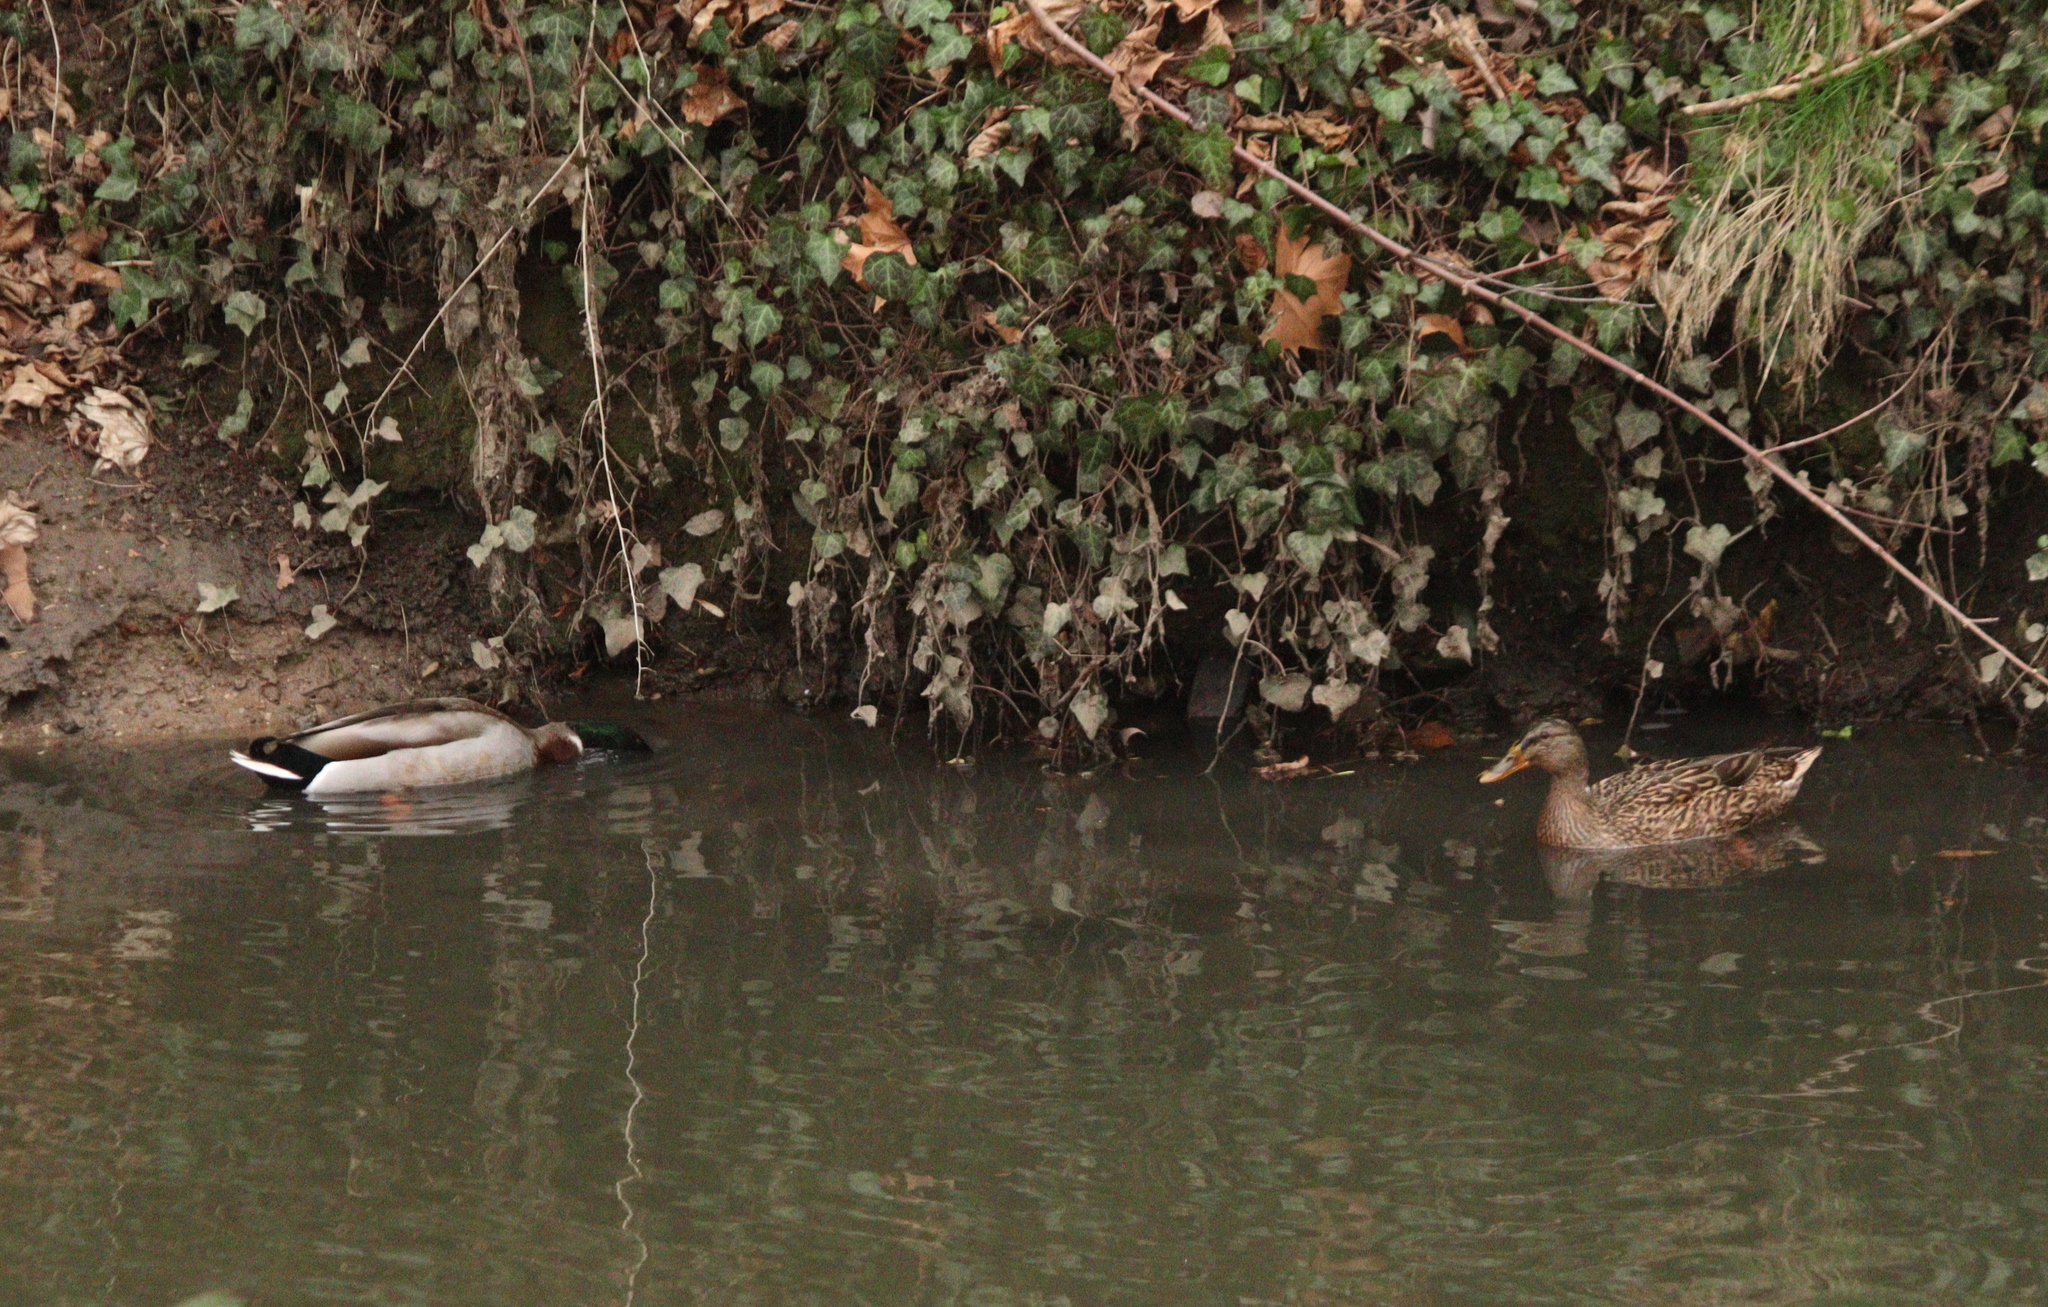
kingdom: Animalia
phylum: Chordata
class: Aves
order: Anseriformes
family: Anatidae
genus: Anas
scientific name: Anas platyrhynchos
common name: Mallard
